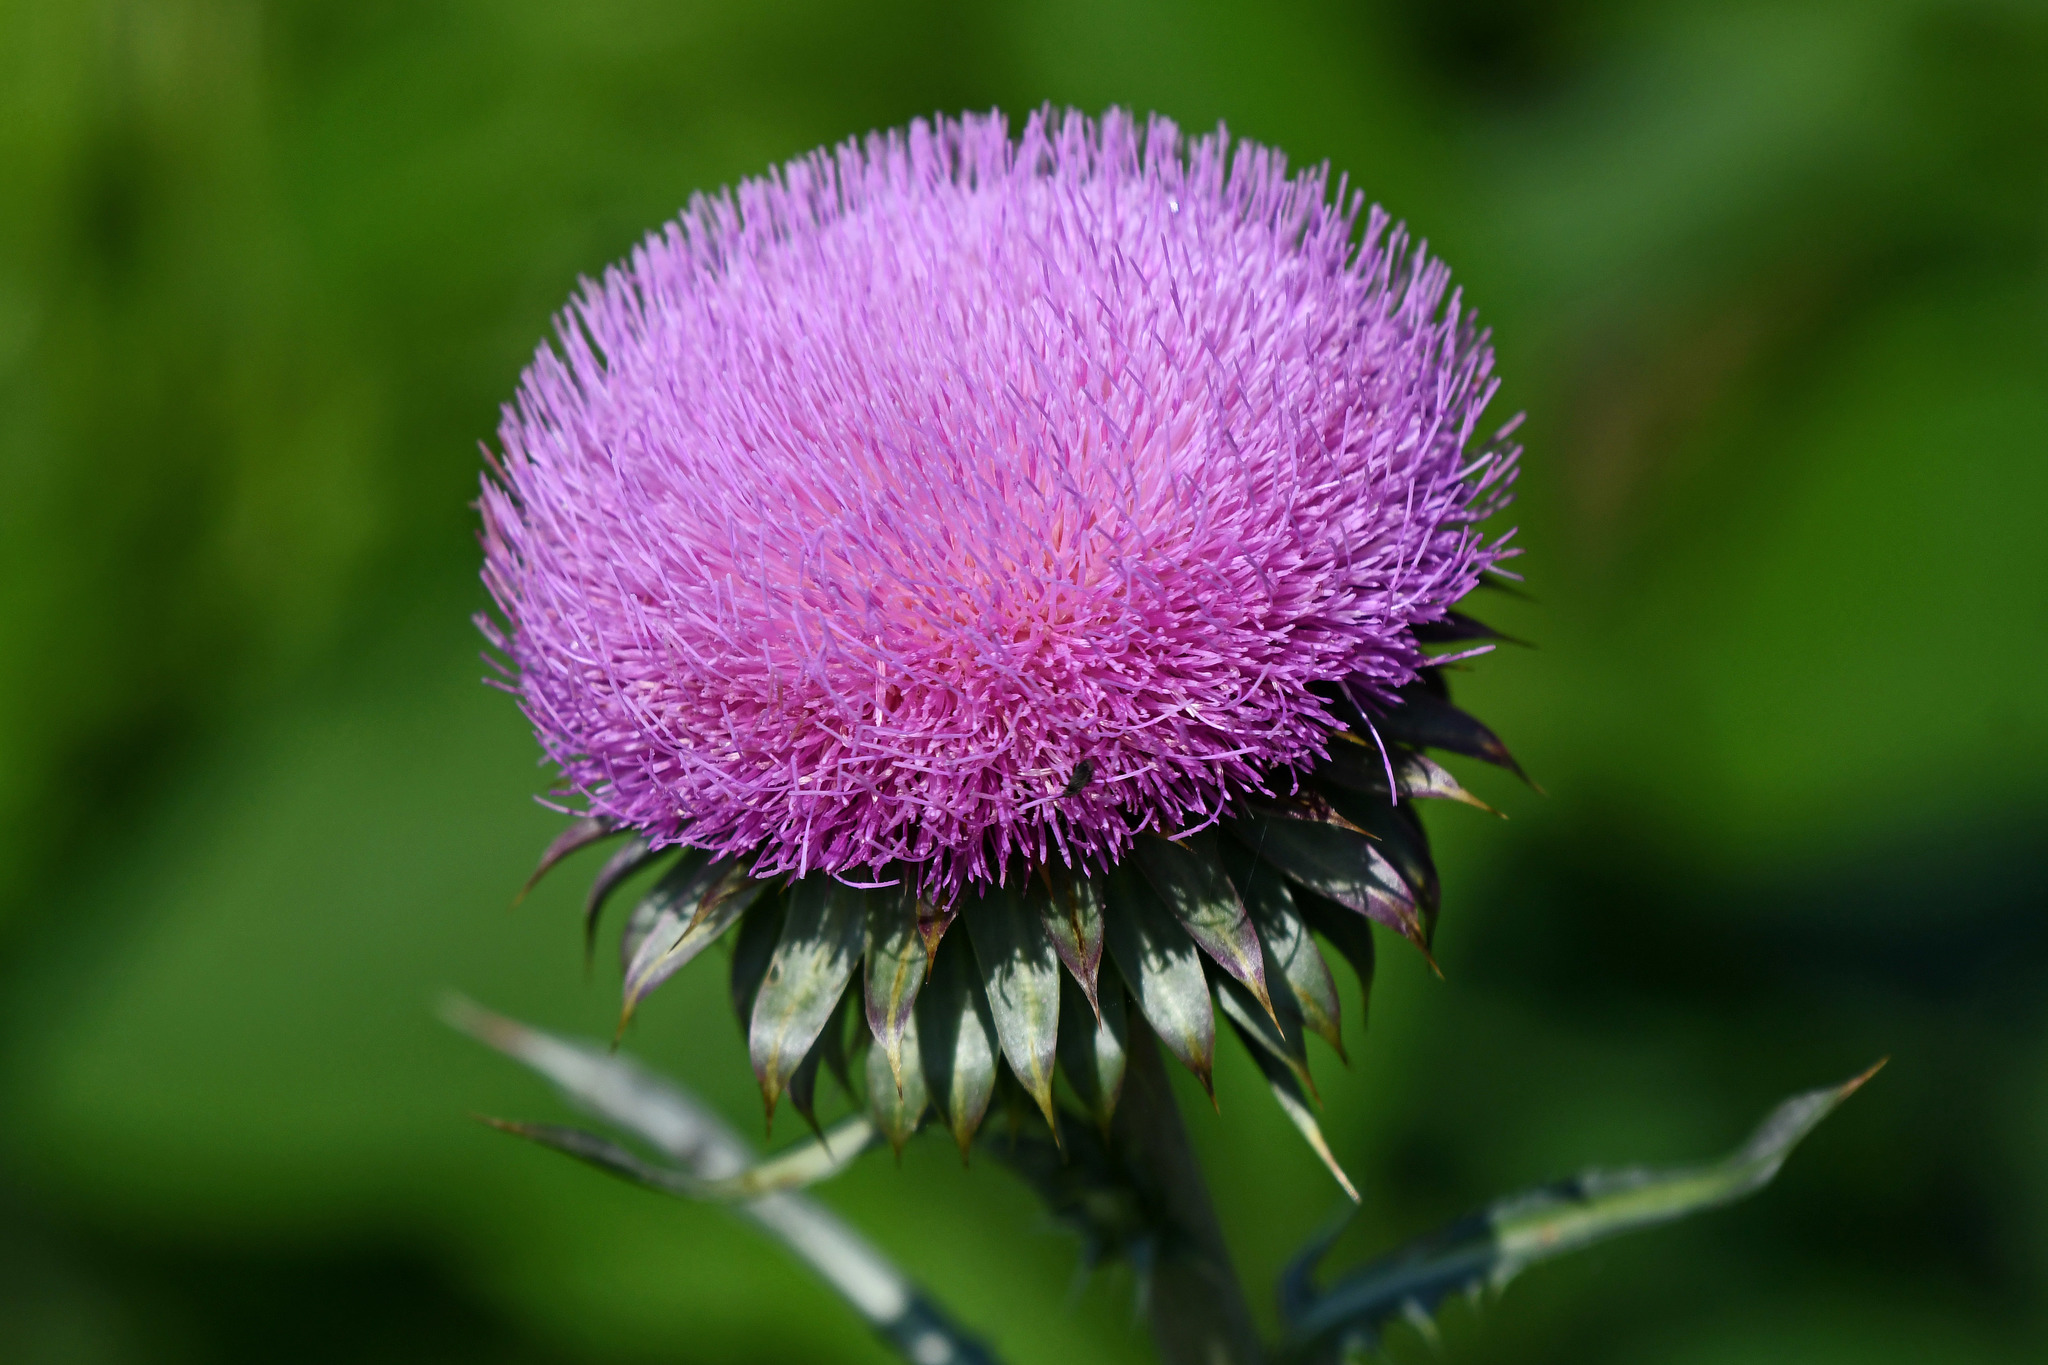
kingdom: Plantae
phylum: Tracheophyta
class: Magnoliopsida
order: Asterales
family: Asteraceae
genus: Carduus
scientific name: Carduus nutans
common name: Musk thistle
